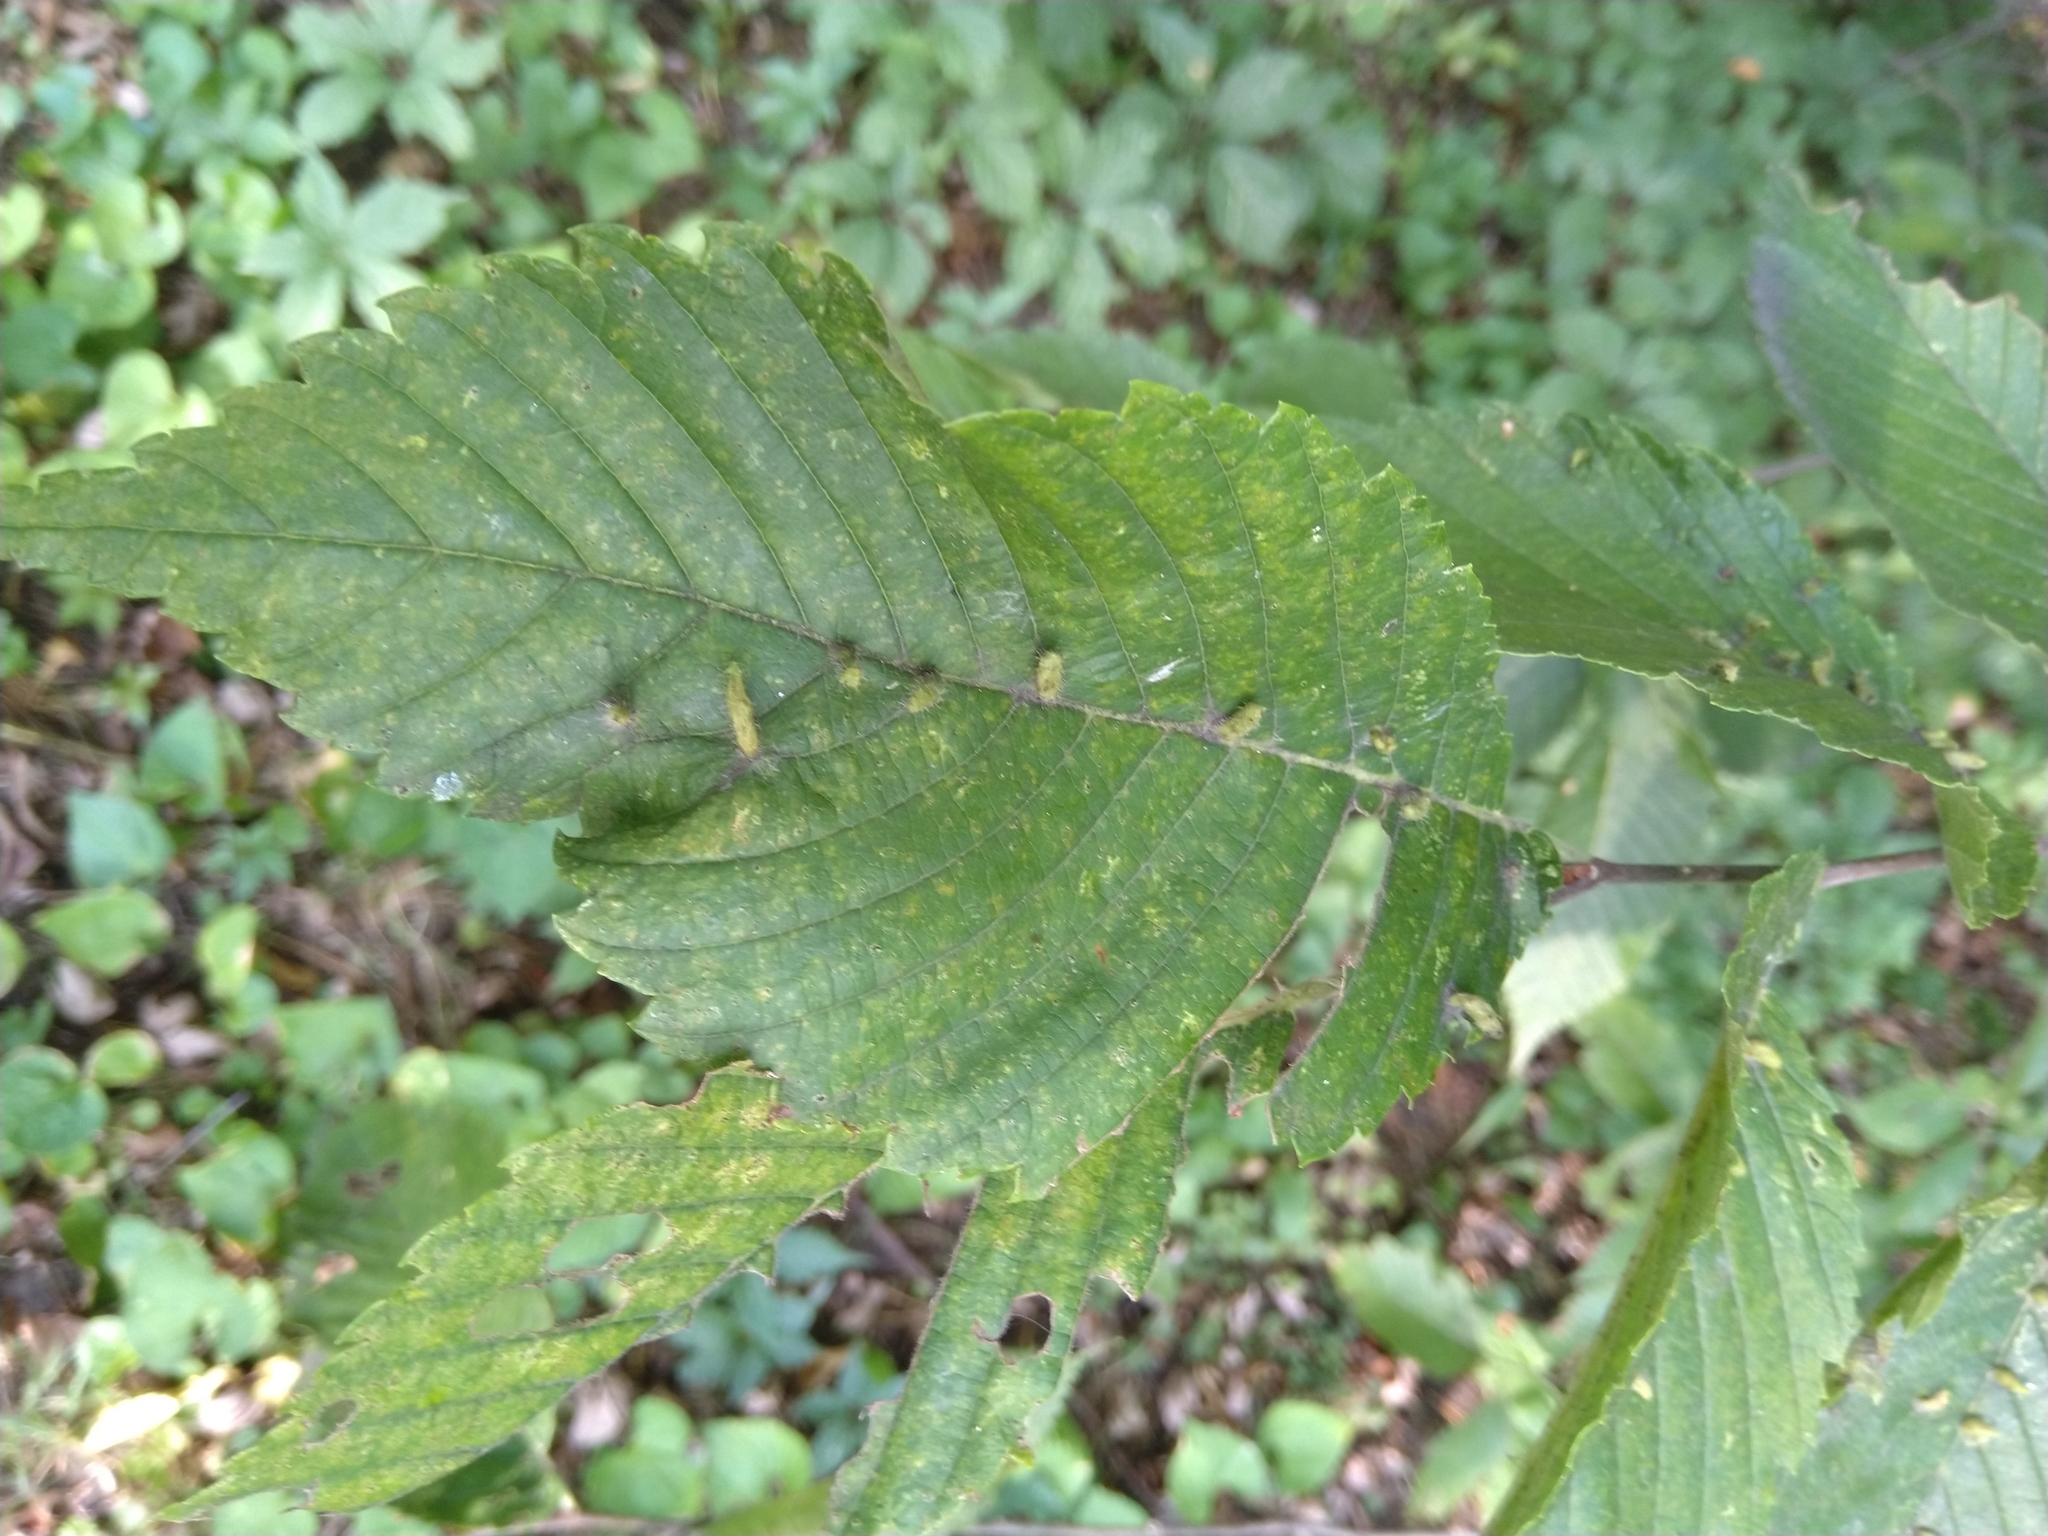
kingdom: Animalia
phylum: Arthropoda
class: Arachnida
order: Trombidiformes
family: Eriophyidae
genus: Aceria
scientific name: Aceria
